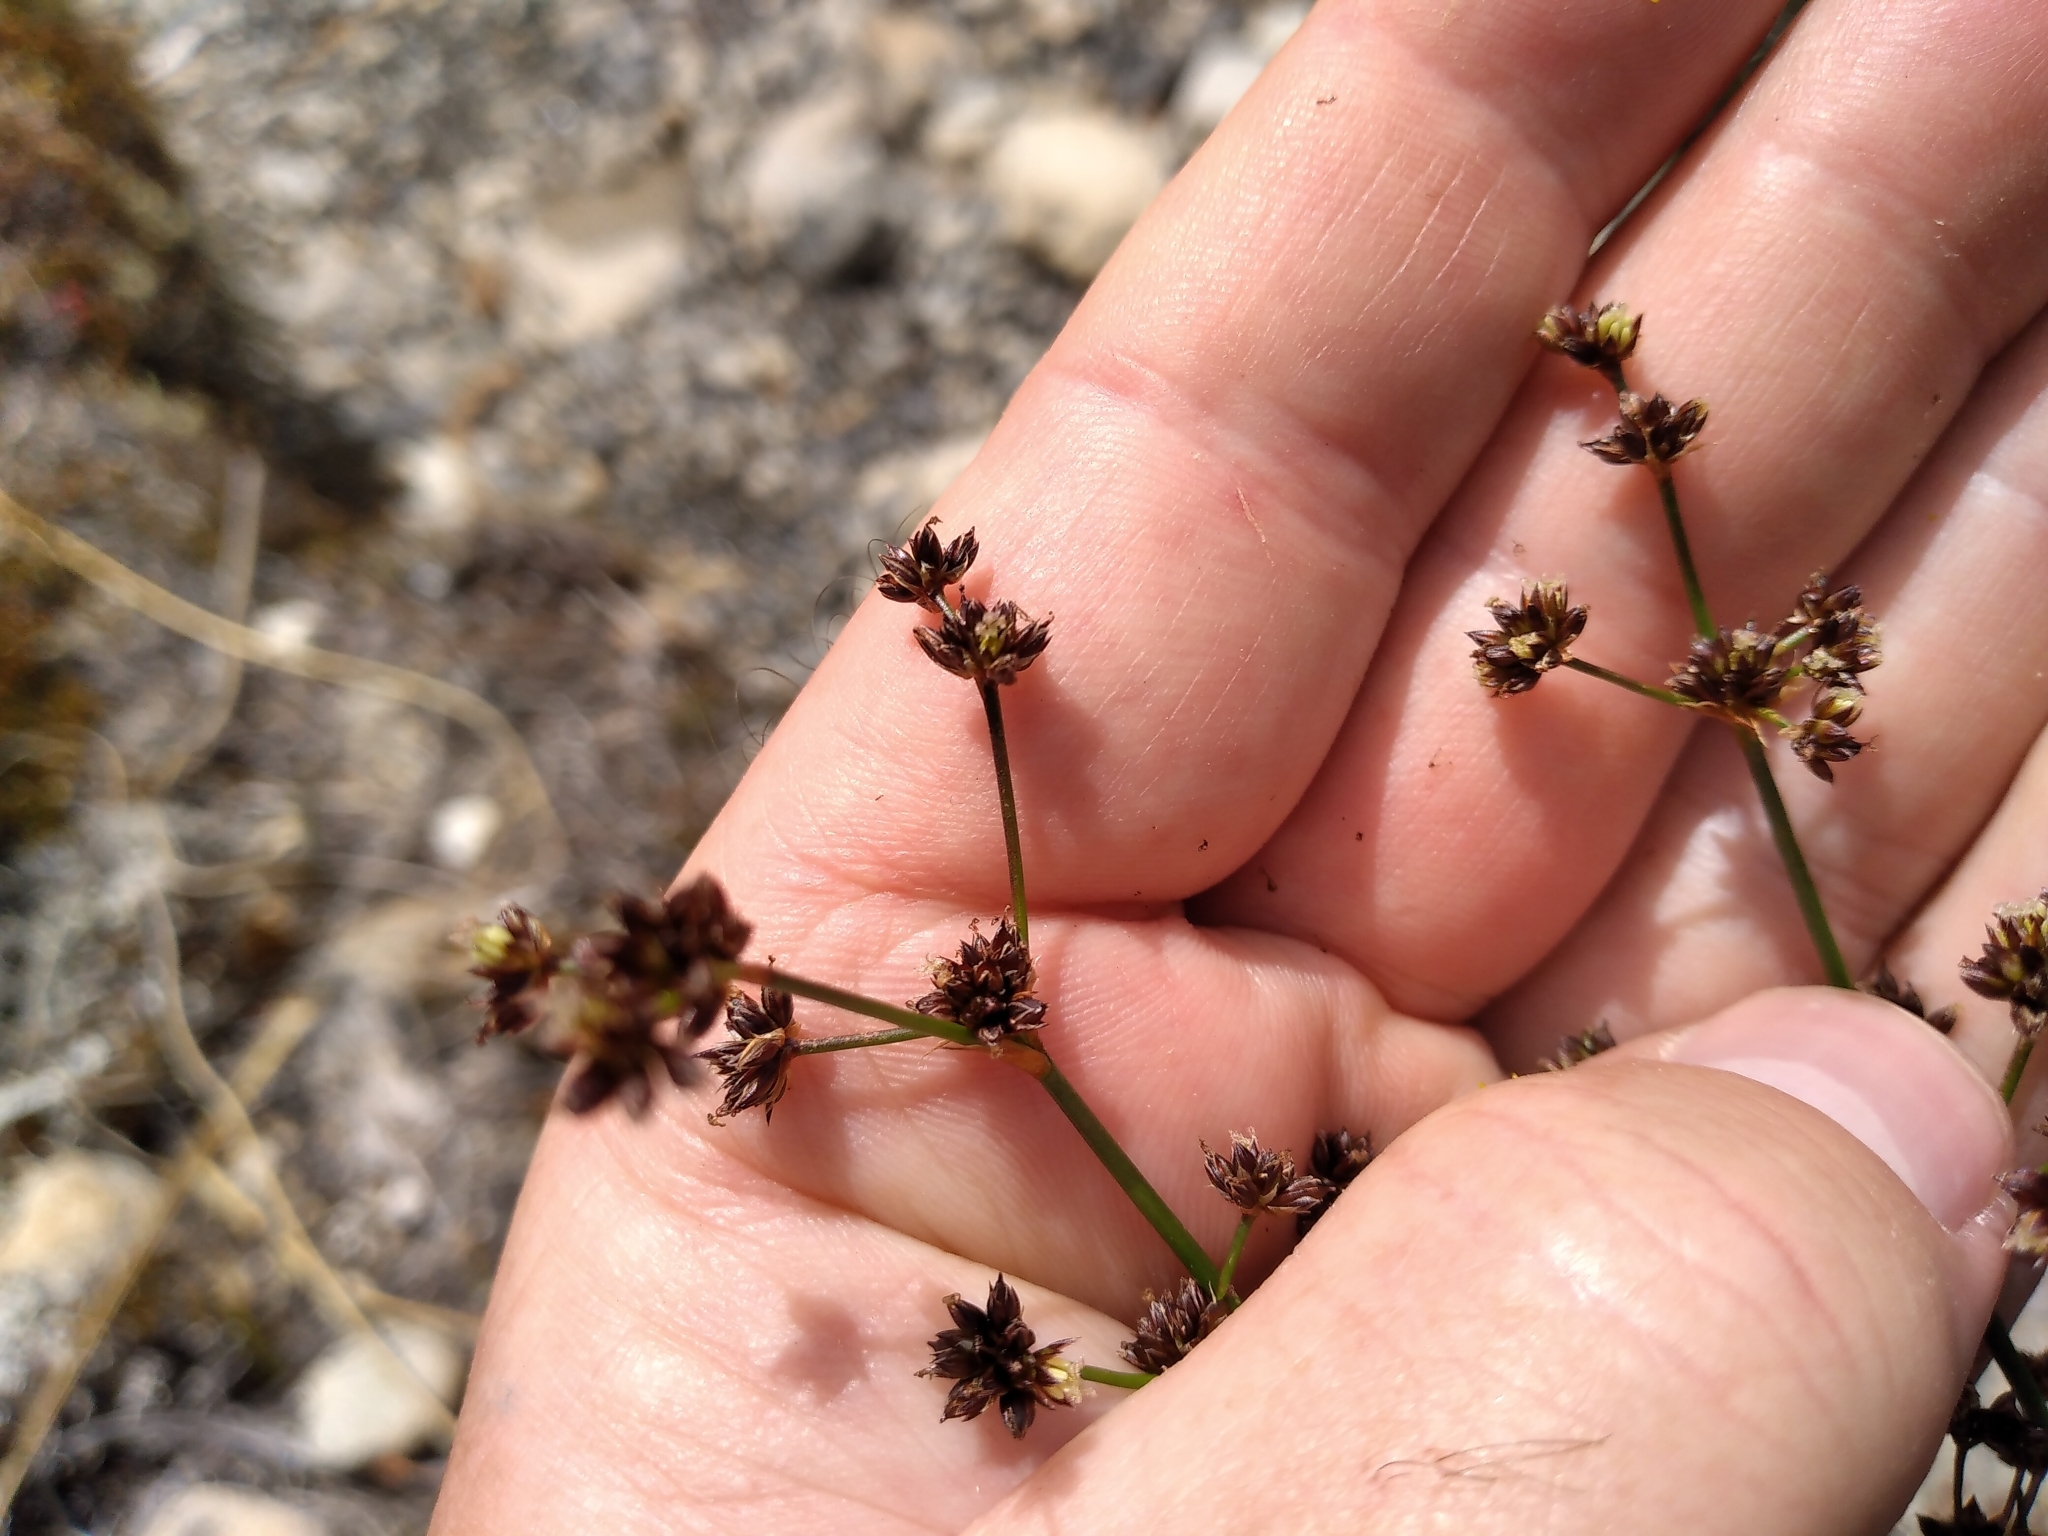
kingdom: Plantae
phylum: Tracheophyta
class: Liliopsida
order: Poales
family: Juncaceae
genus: Juncus
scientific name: Juncus articulatus
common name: Jointed rush
